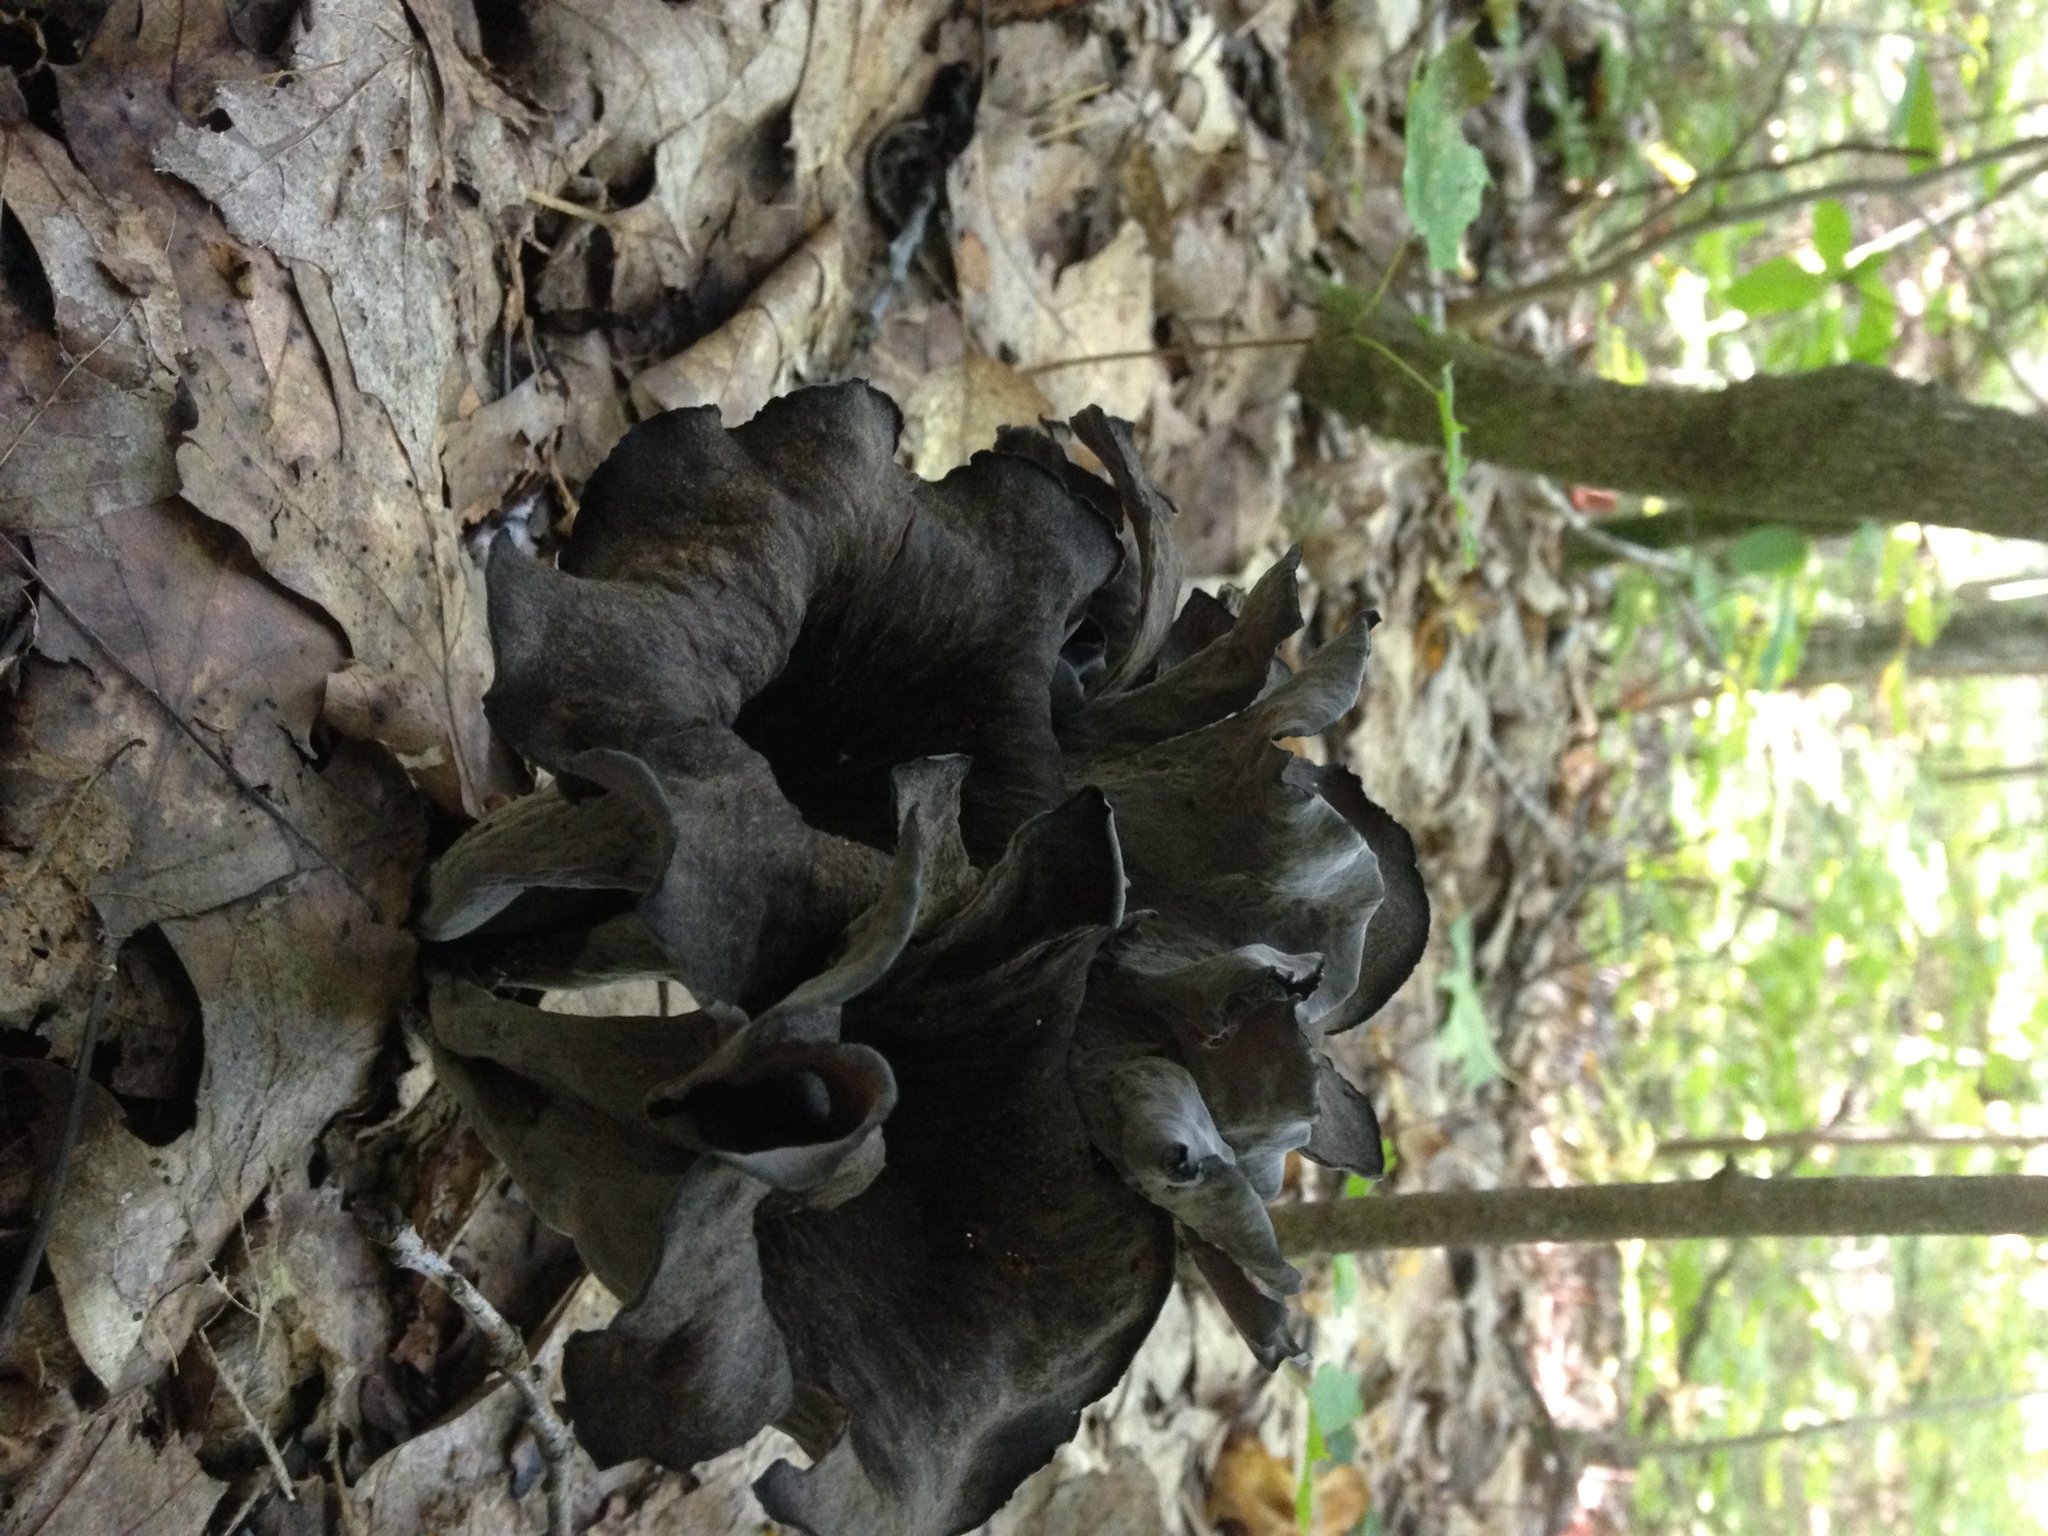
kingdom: Fungi
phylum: Basidiomycota
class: Agaricomycetes
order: Cantharellales
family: Hydnaceae
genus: Craterellus
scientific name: Craterellus cornucopioides
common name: Horn of plenty
